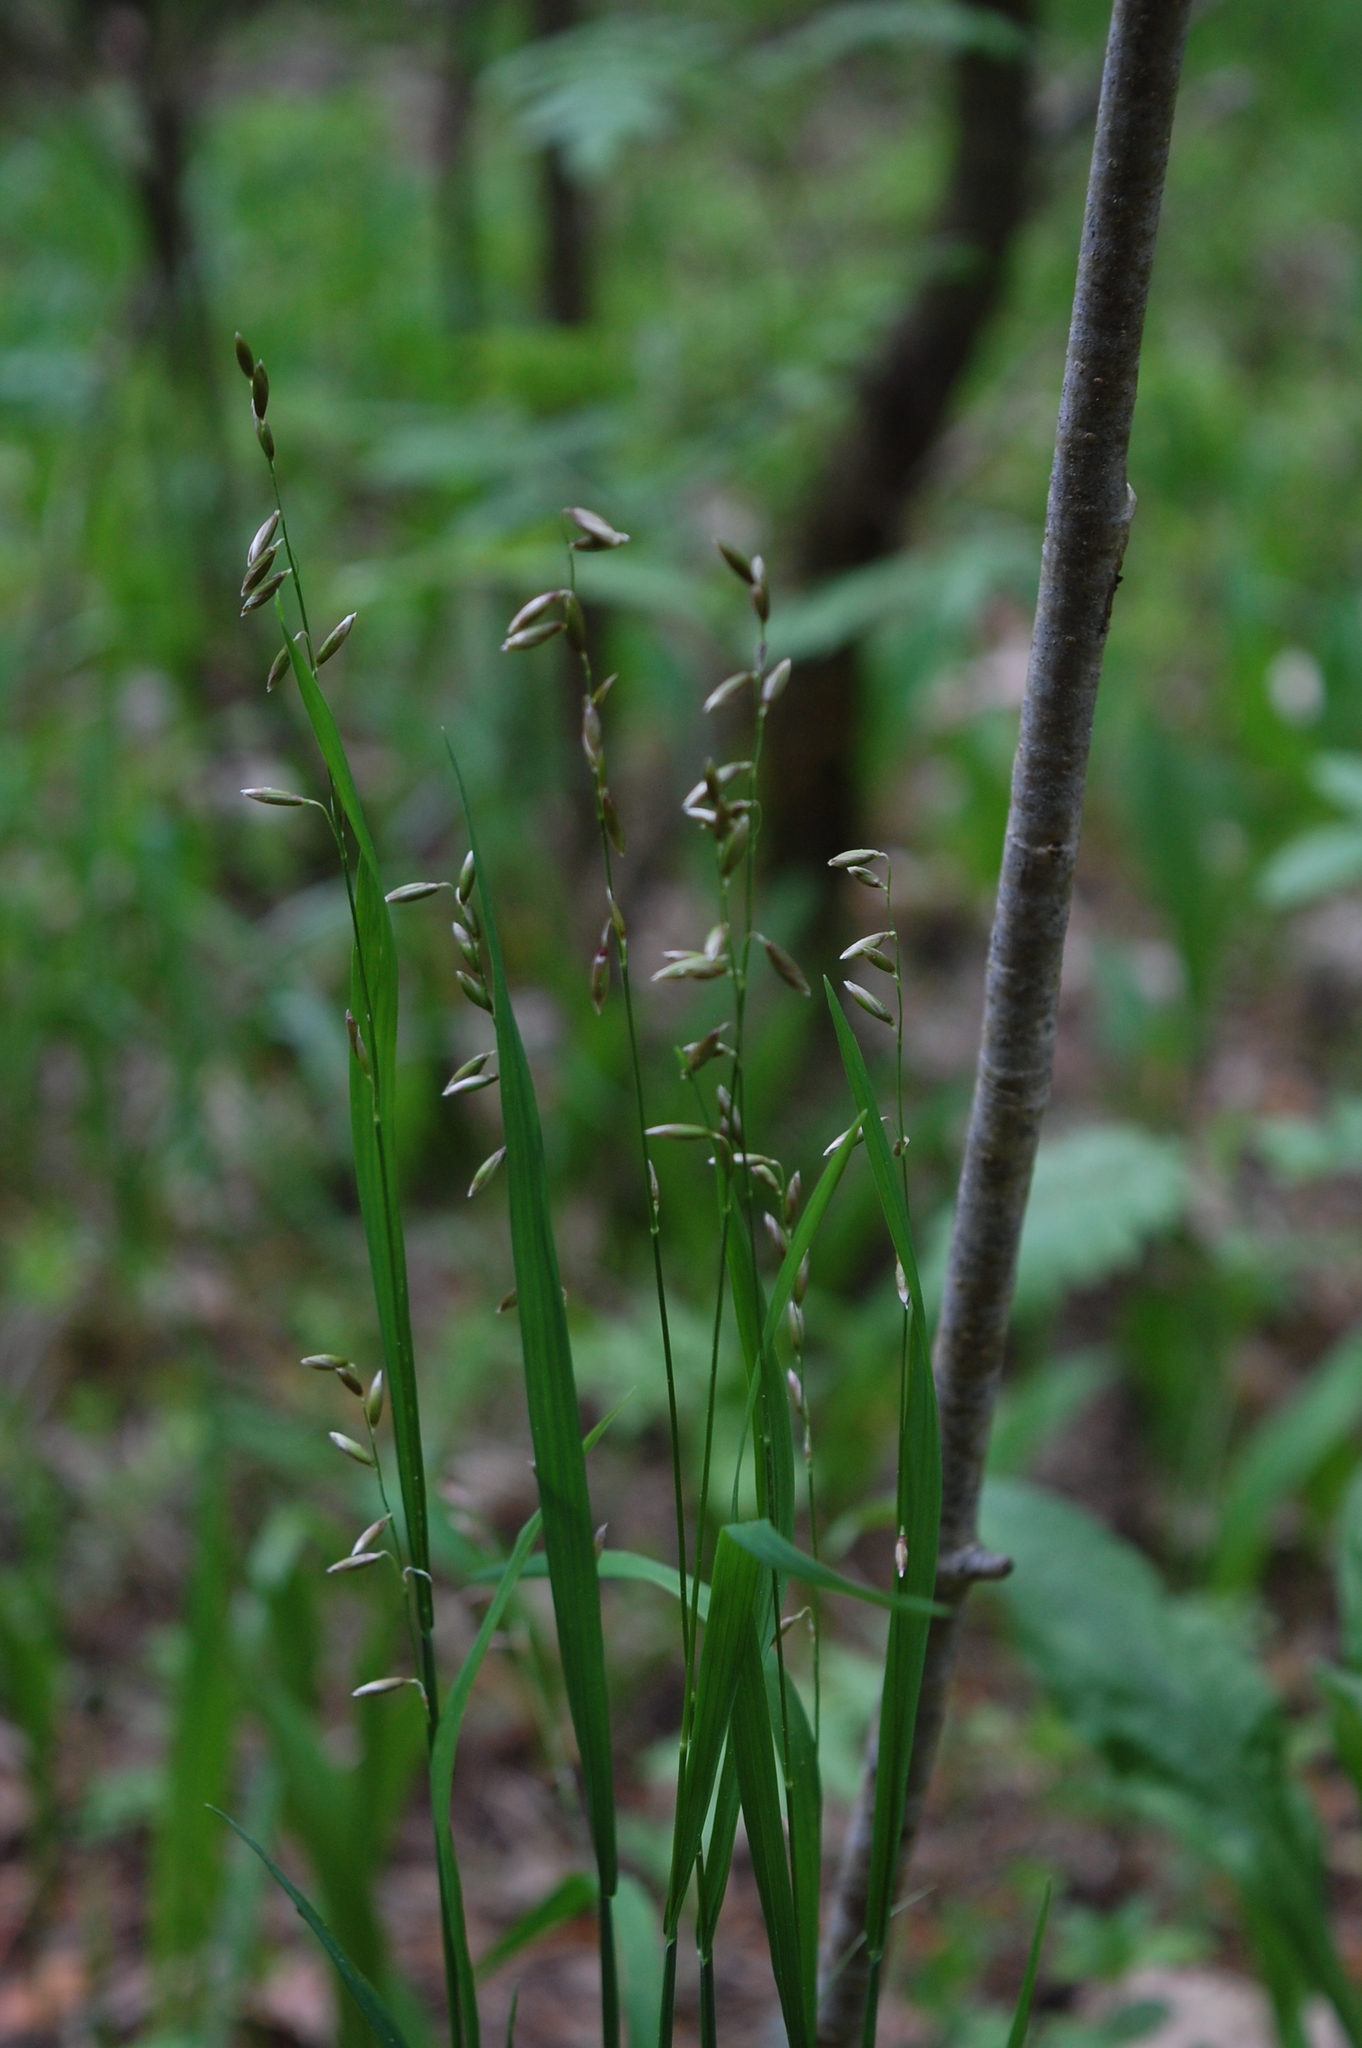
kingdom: Plantae
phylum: Tracheophyta
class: Liliopsida
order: Poales
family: Poaceae
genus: Melica
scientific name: Melica nutans
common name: Mountain melick
